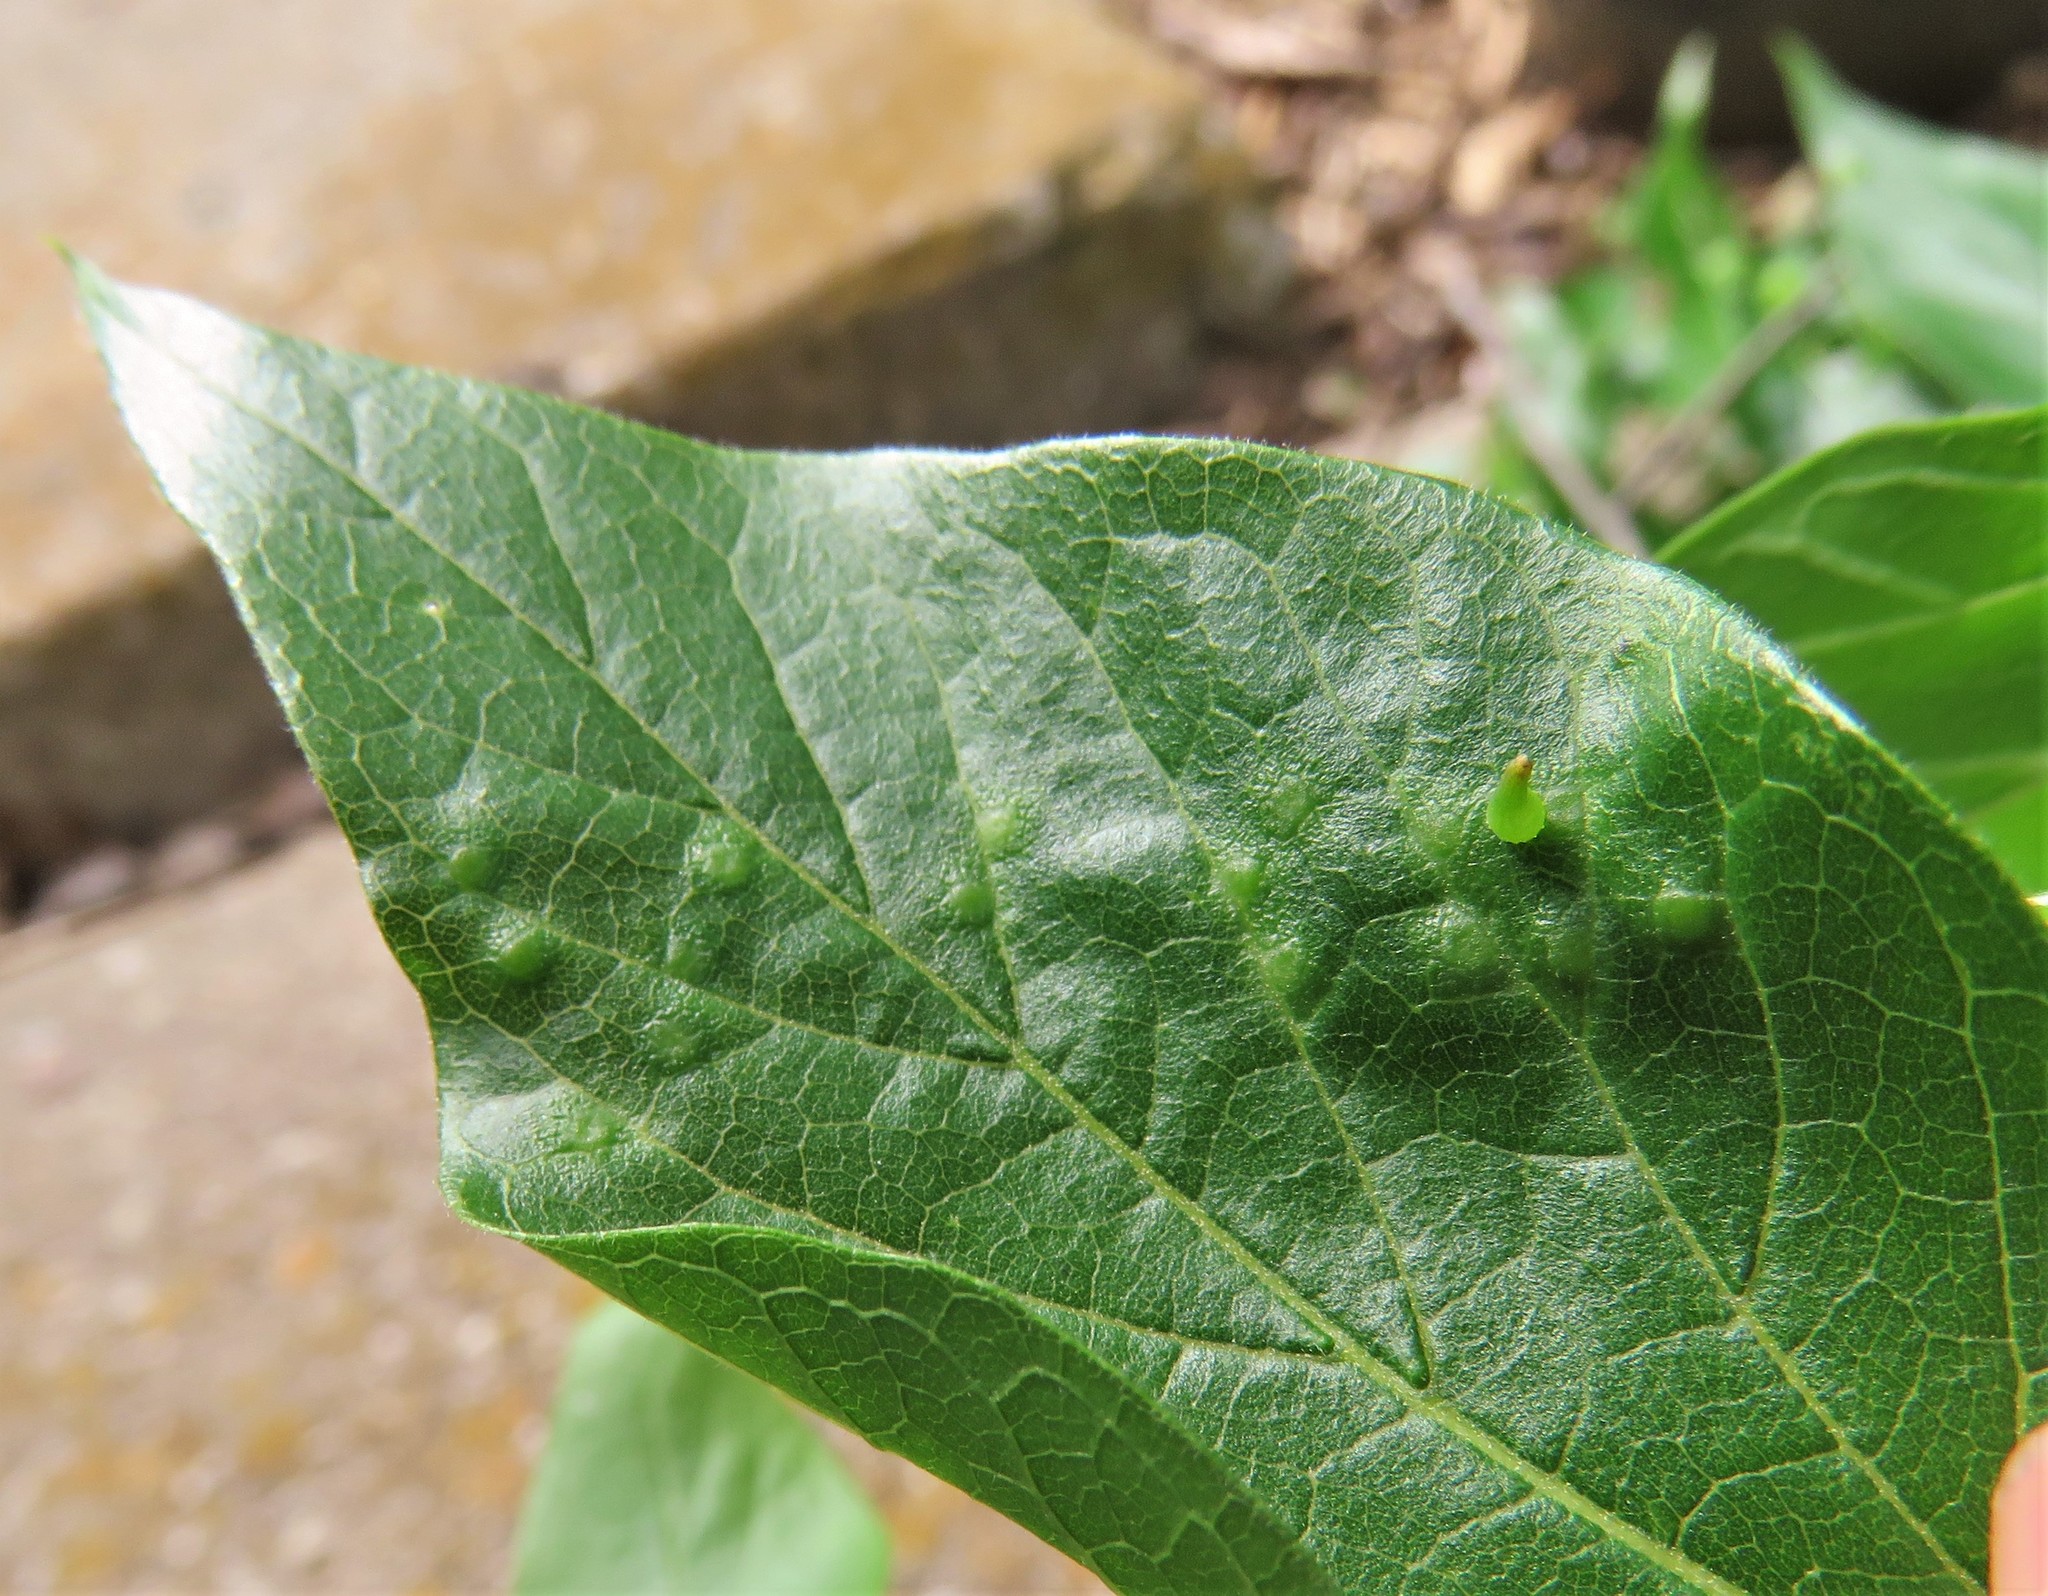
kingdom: Animalia
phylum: Arthropoda
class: Insecta
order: Diptera
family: Cecidomyiidae
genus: Celticecis
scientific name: Celticecis spiniformis
